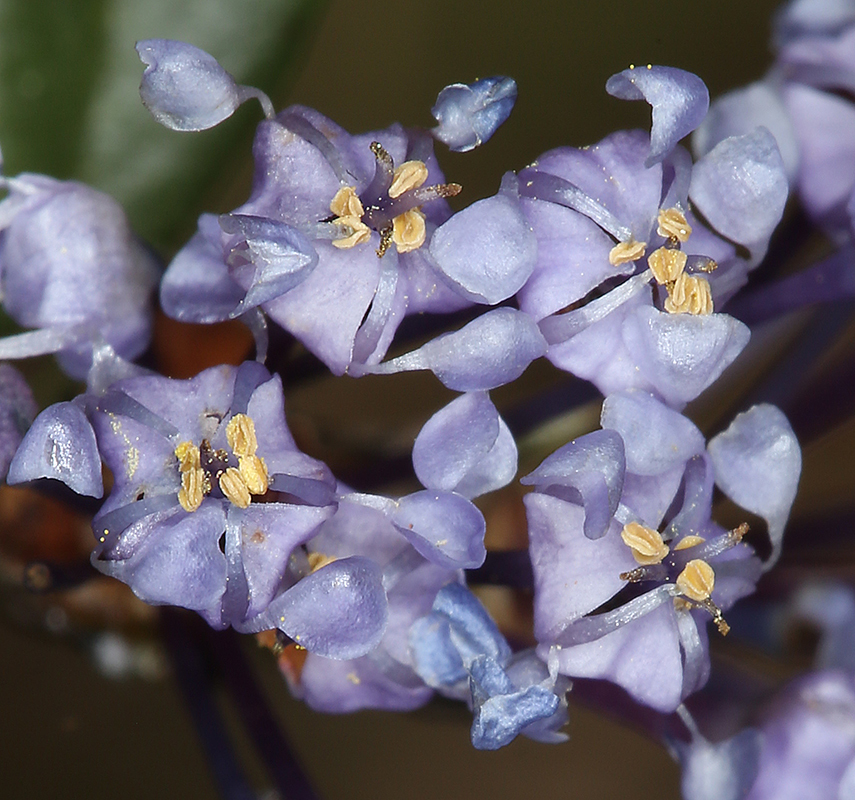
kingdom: Plantae
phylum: Tracheophyta
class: Magnoliopsida
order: Rosales
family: Rhamnaceae
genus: Ceanothus
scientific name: Ceanothus pumilus
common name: Siskiyou-mat
